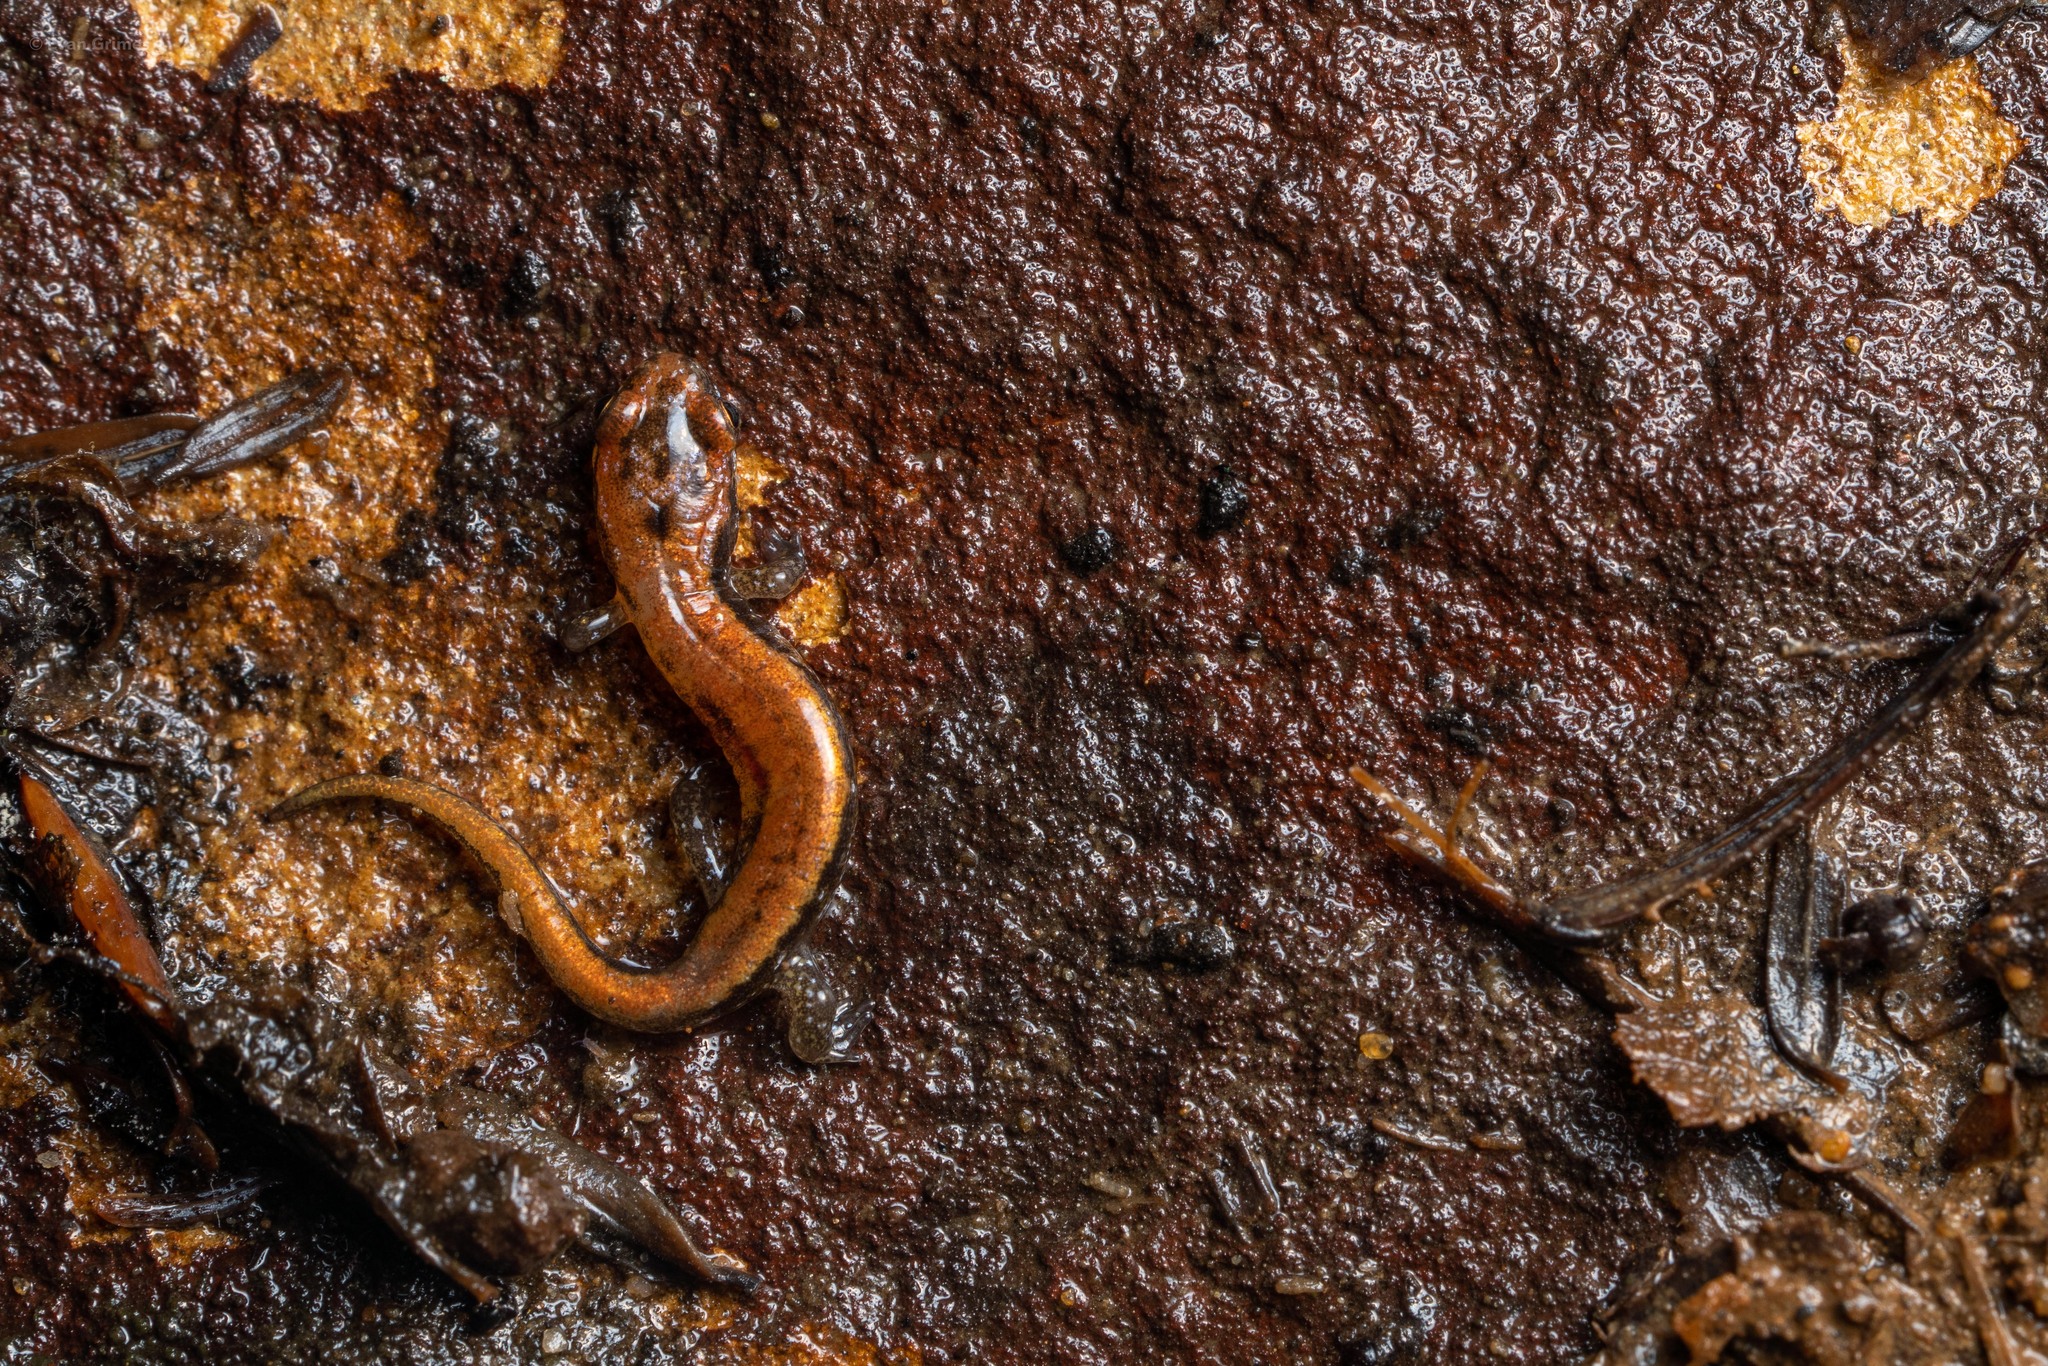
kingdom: Animalia
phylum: Chordata
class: Amphibia
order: Caudata
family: Plethodontidae
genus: Desmognathus
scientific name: Desmognathus ochrophaeus
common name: Allegheny mountain dusky salamander
